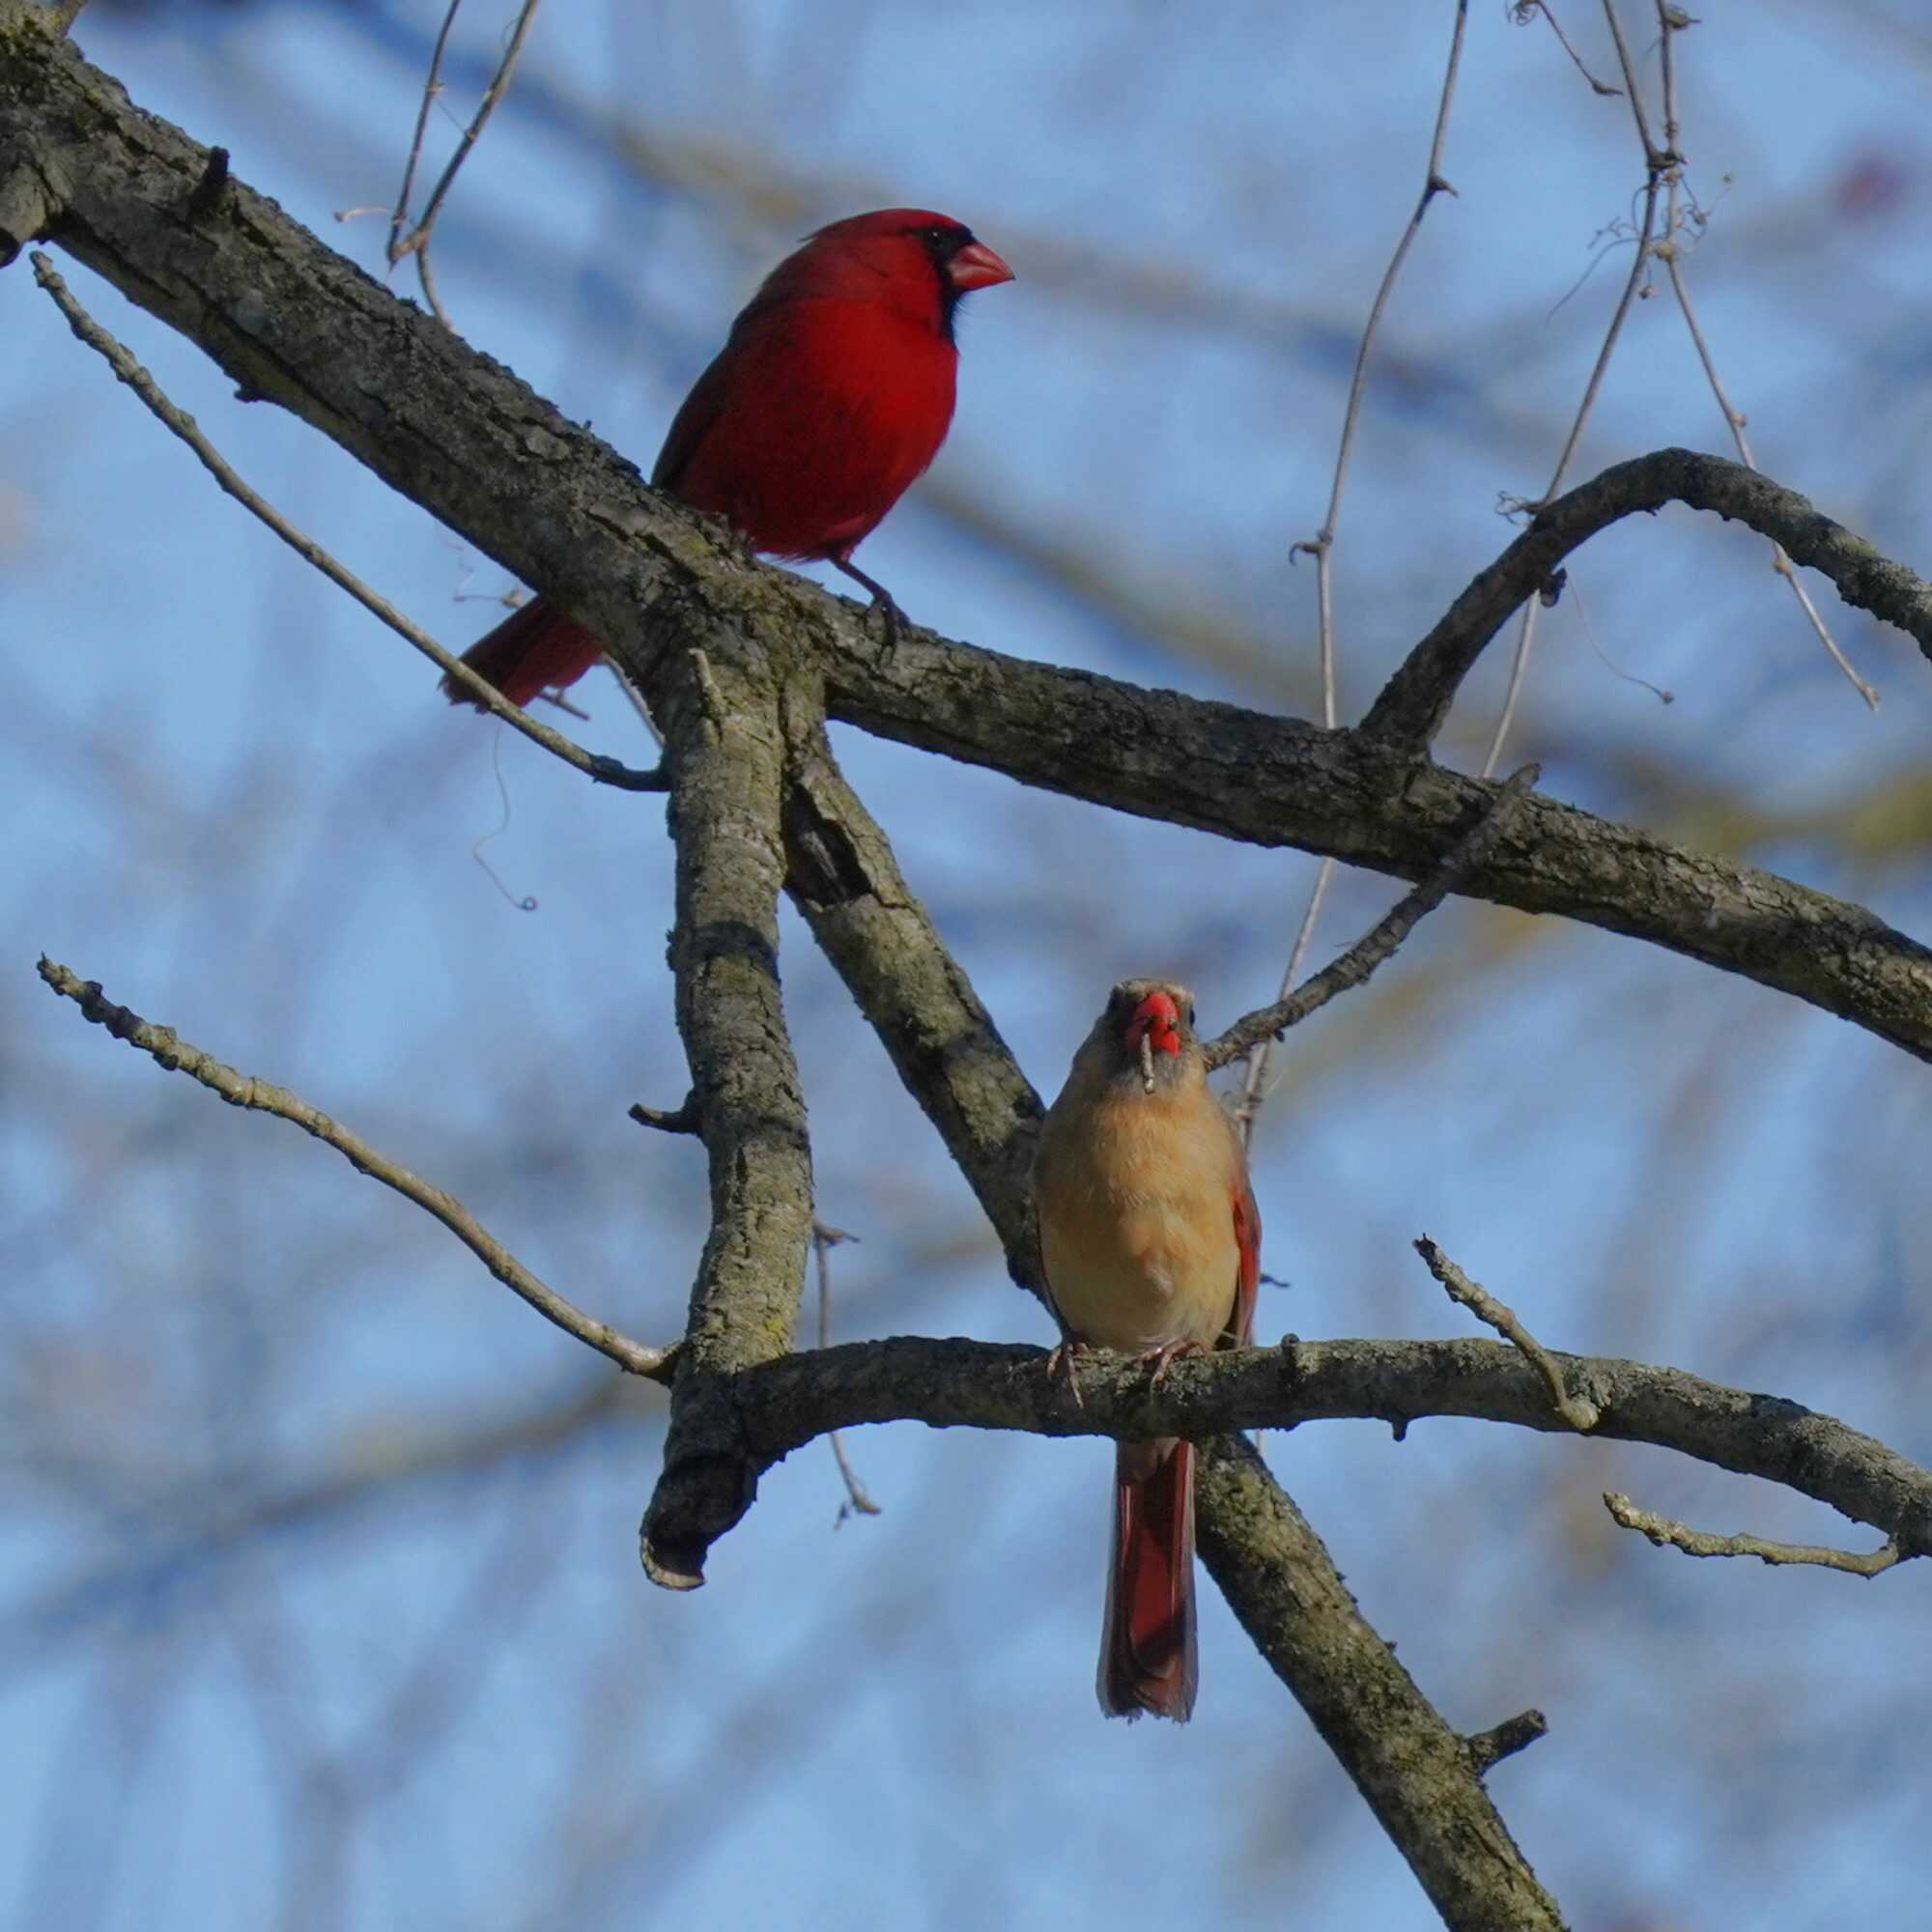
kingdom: Animalia
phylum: Chordata
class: Aves
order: Passeriformes
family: Cardinalidae
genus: Cardinalis
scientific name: Cardinalis cardinalis
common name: Northern cardinal
